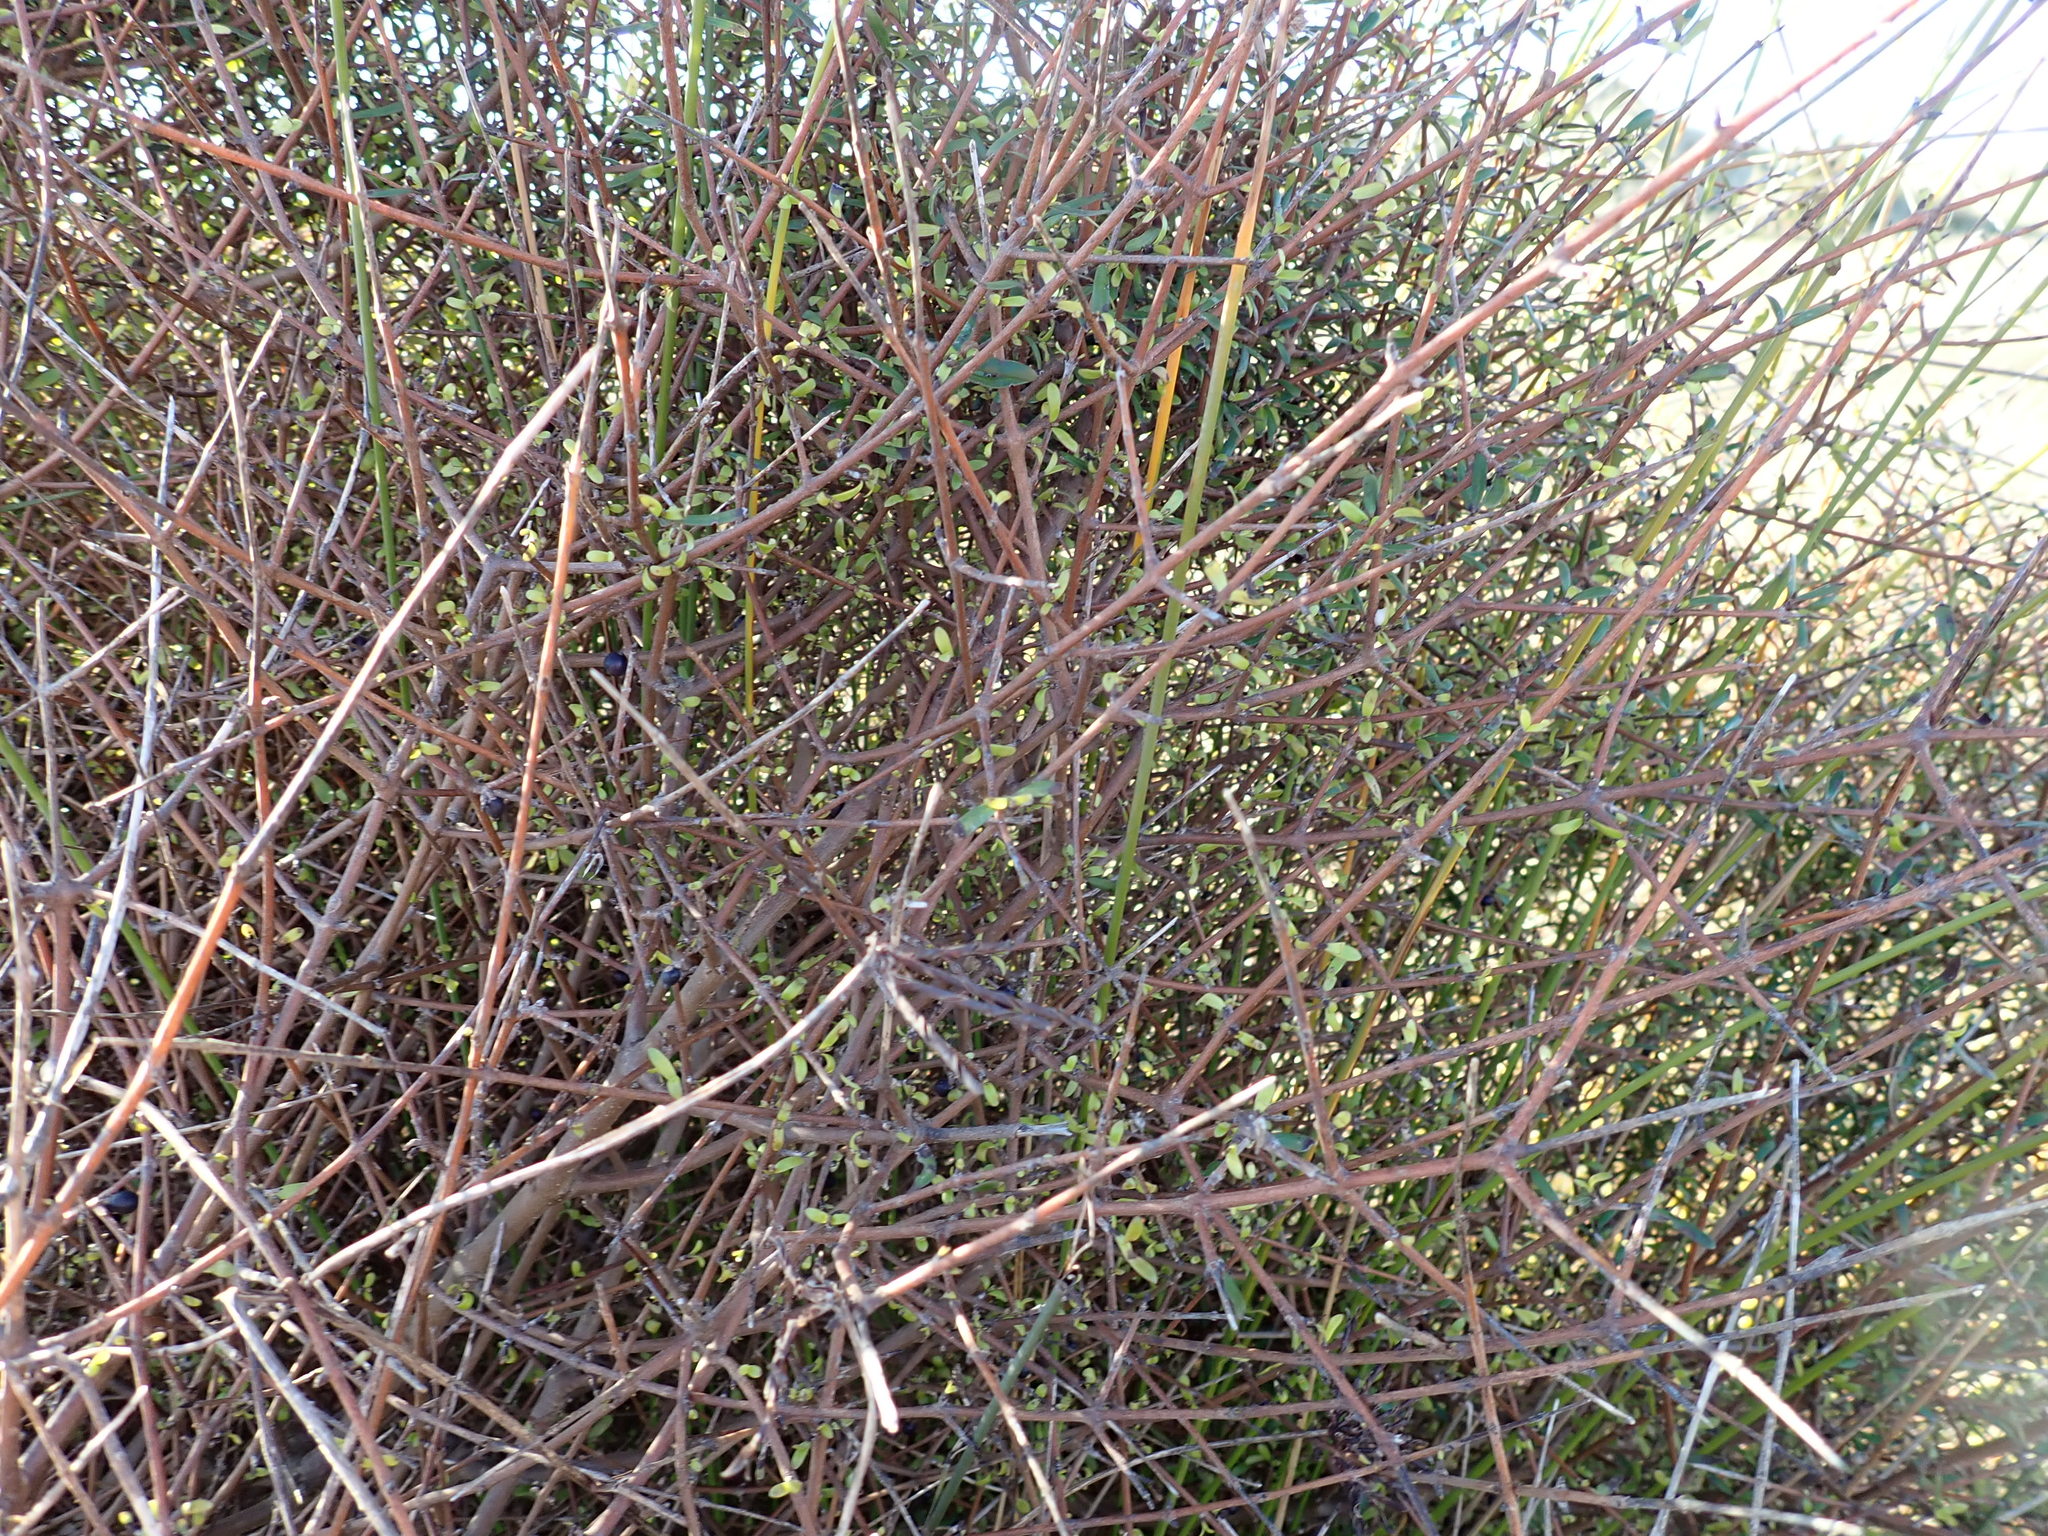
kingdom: Plantae
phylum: Tracheophyta
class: Magnoliopsida
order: Gentianales
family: Rubiaceae
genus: Coprosma
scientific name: Coprosma propinqua
